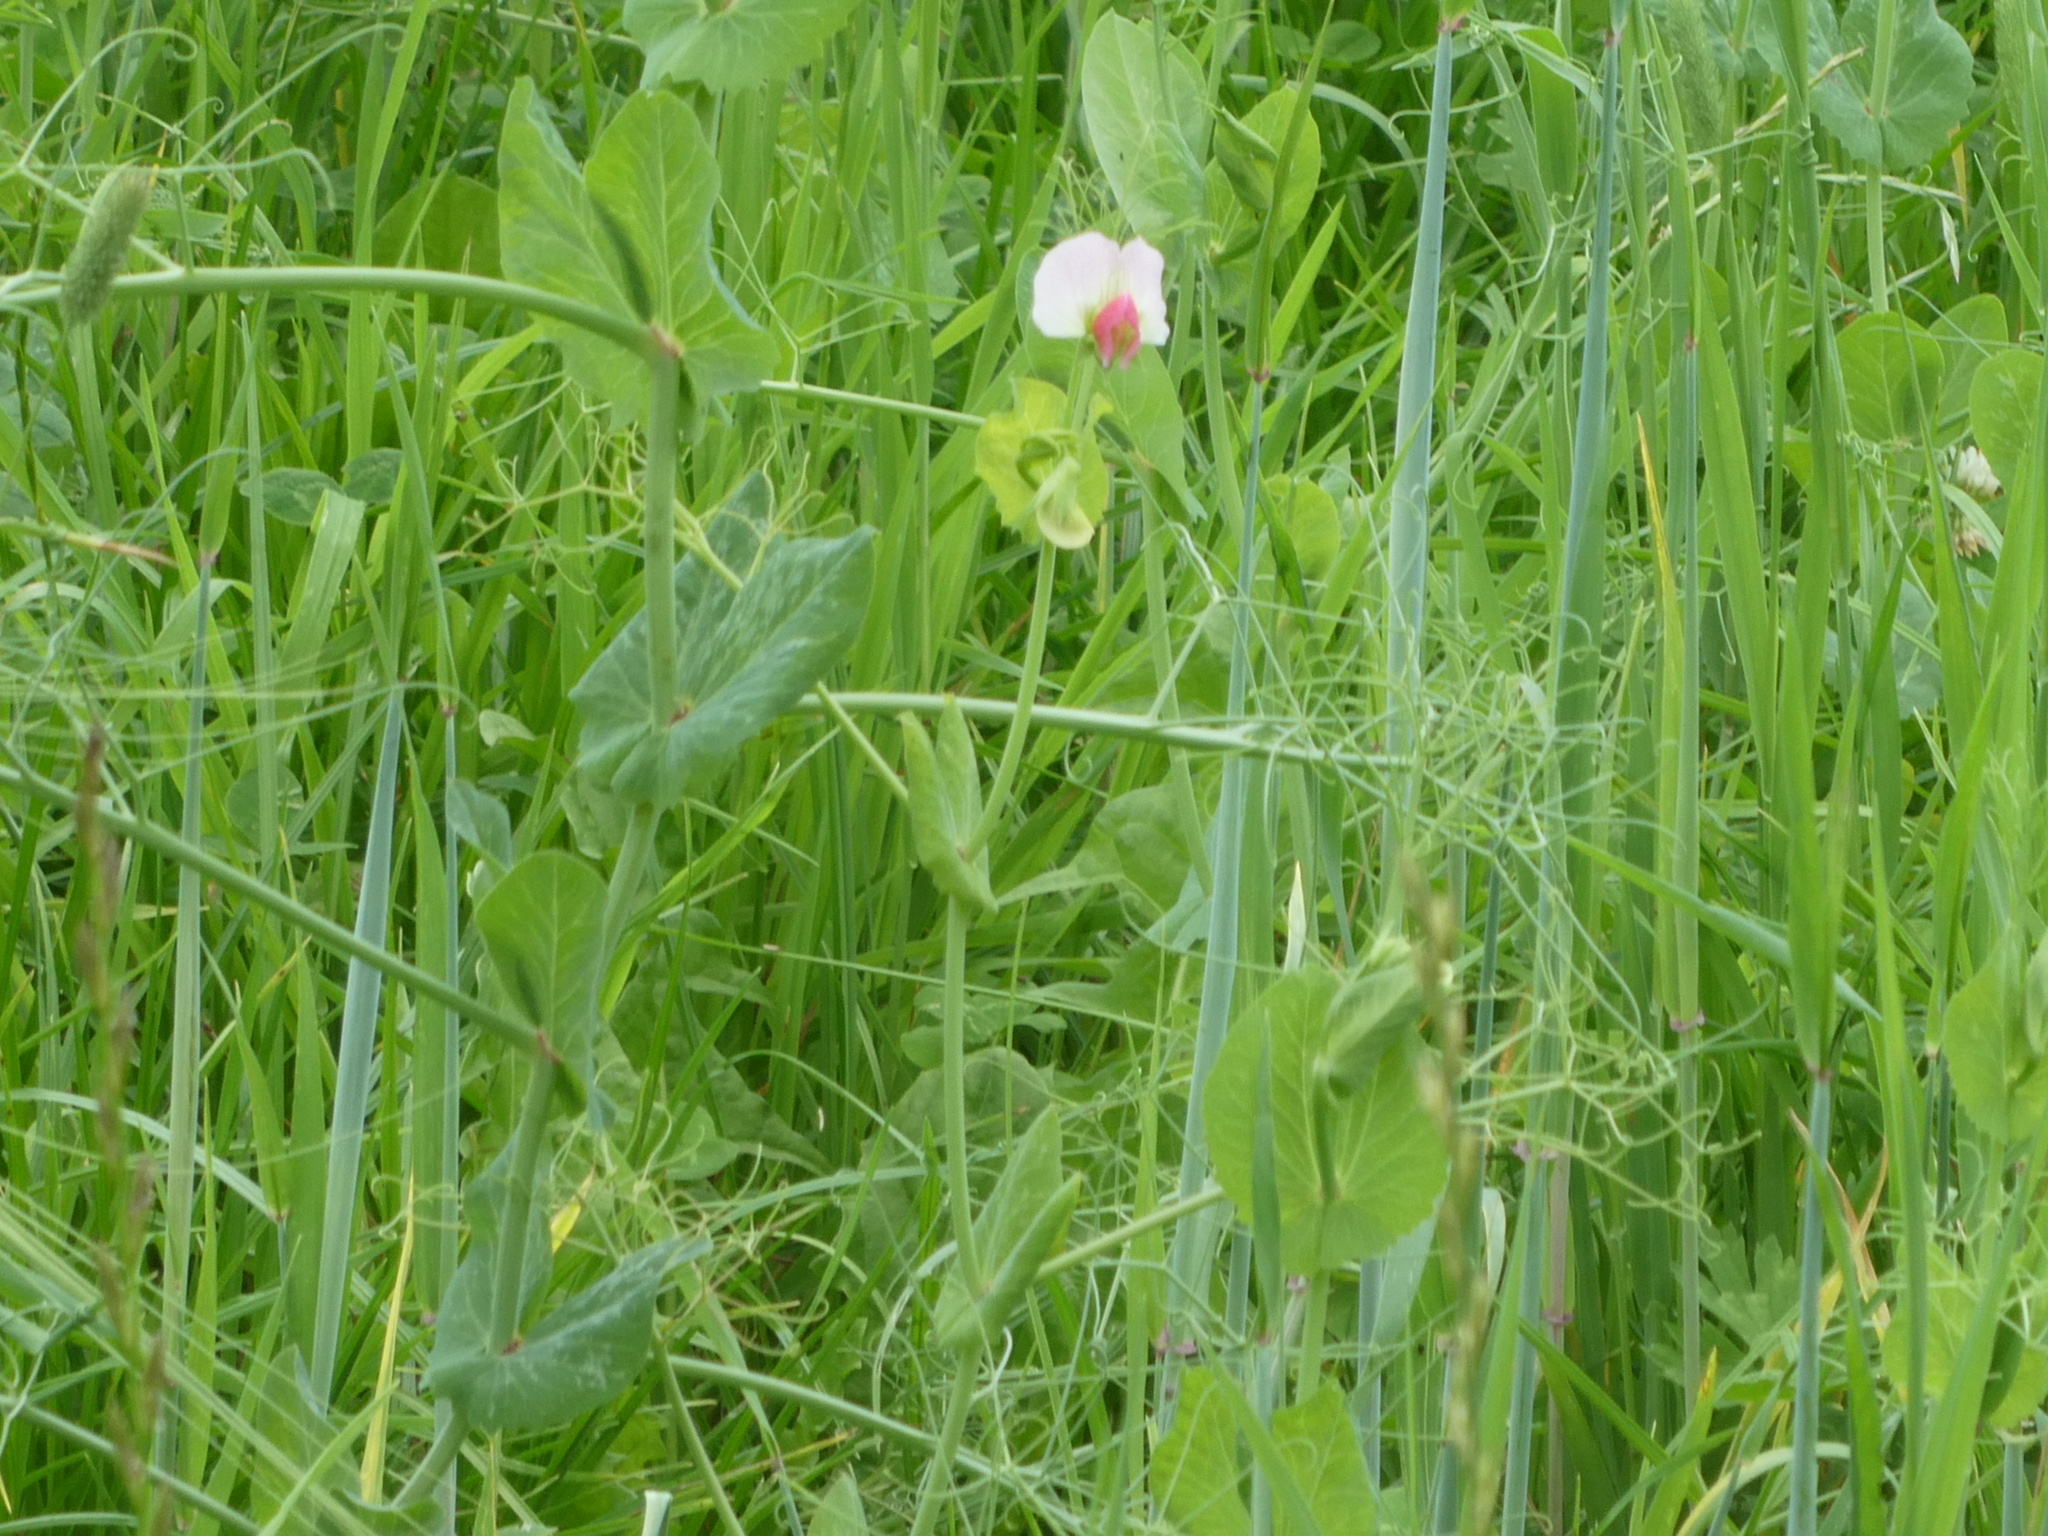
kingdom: Plantae
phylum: Tracheophyta
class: Magnoliopsida
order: Fabales
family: Fabaceae
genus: Lathyrus
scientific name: Lathyrus oleraceus
